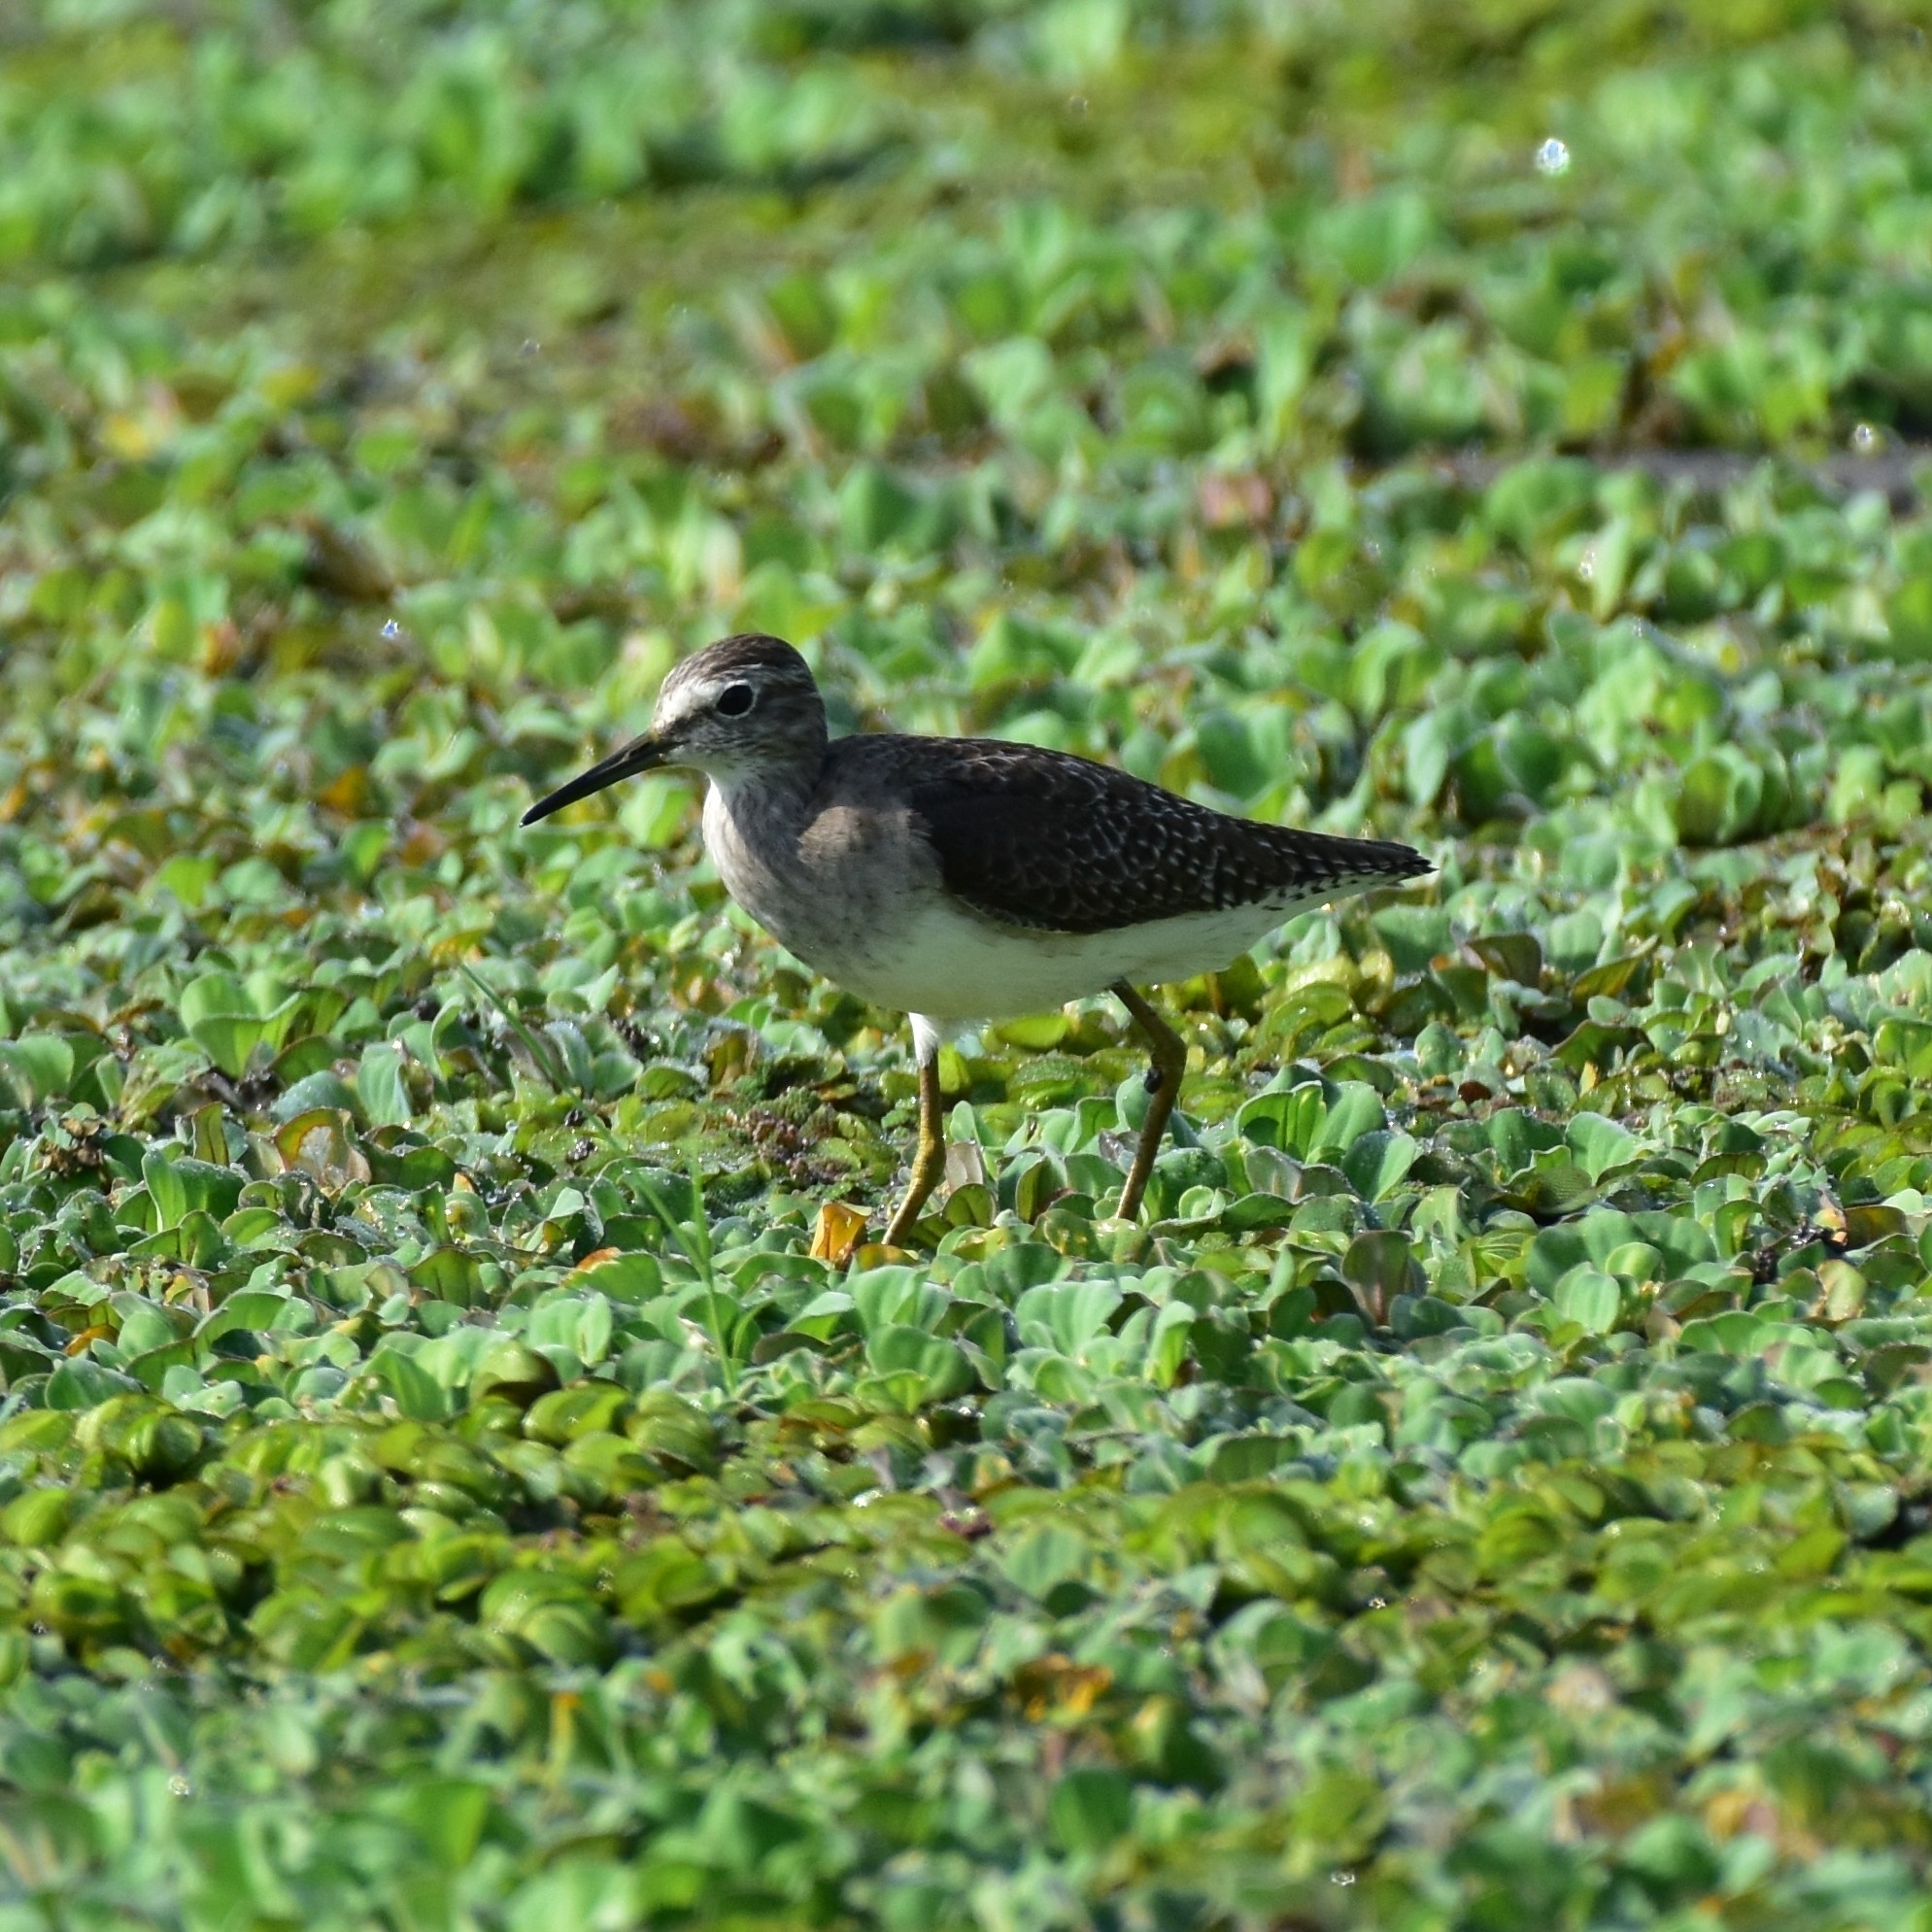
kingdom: Animalia
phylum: Chordata
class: Aves
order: Charadriiformes
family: Scolopacidae
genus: Tringa
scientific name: Tringa glareola
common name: Wood sandpiper
